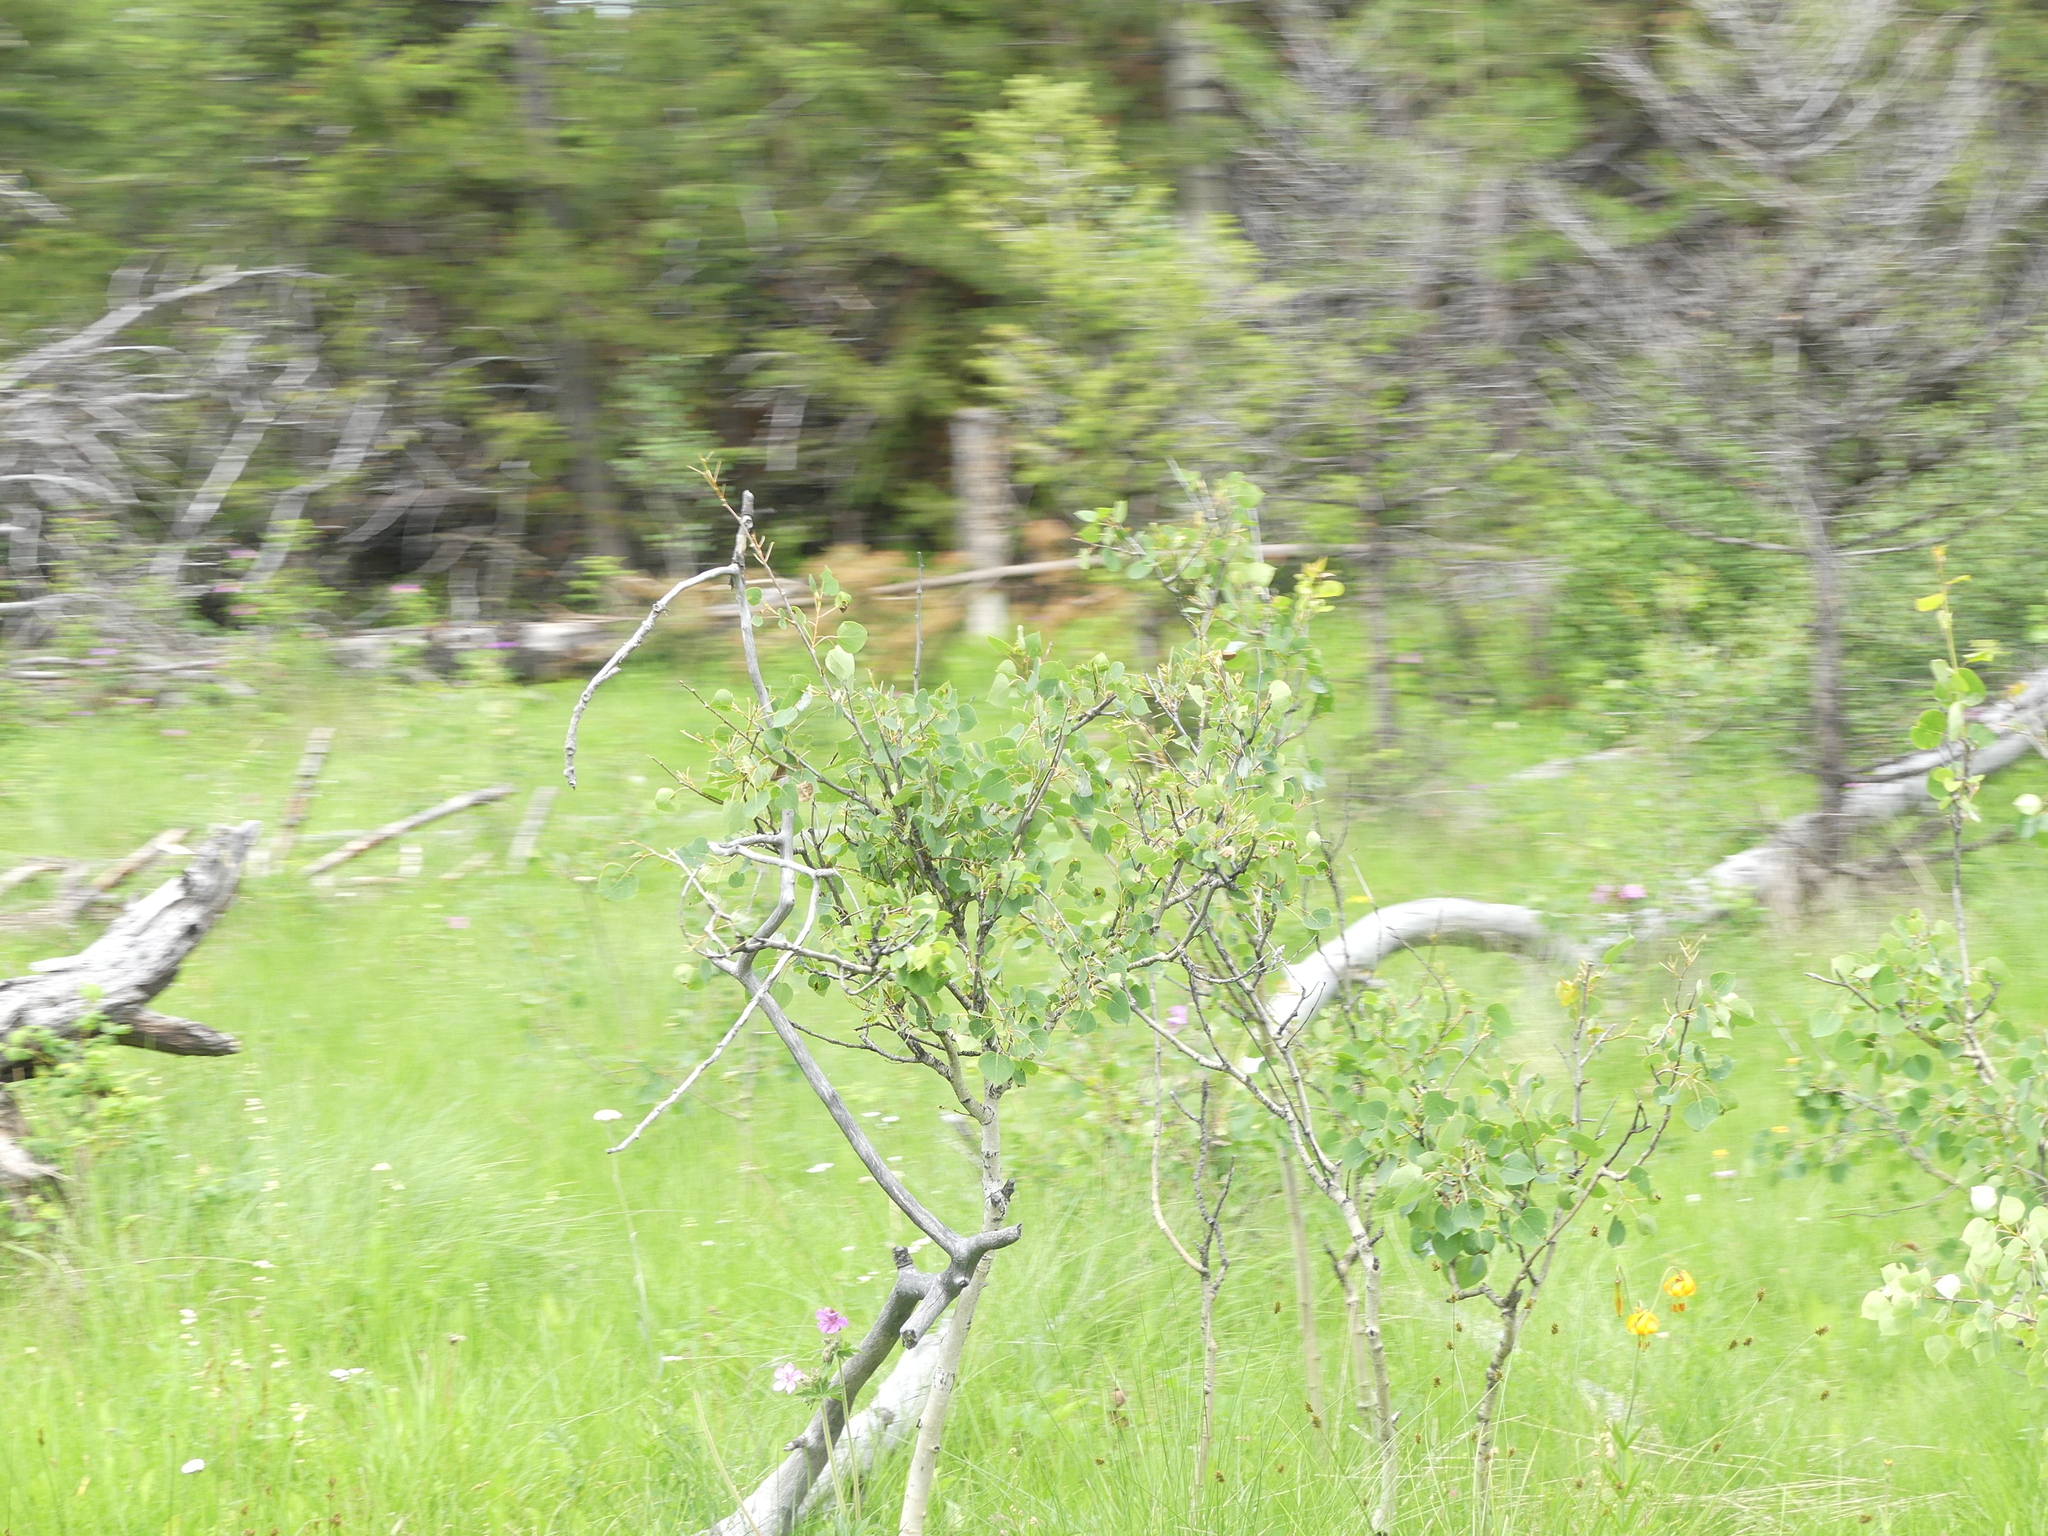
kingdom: Plantae
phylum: Tracheophyta
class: Magnoliopsida
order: Malpighiales
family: Salicaceae
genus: Populus
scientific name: Populus tremuloides
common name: Quaking aspen
